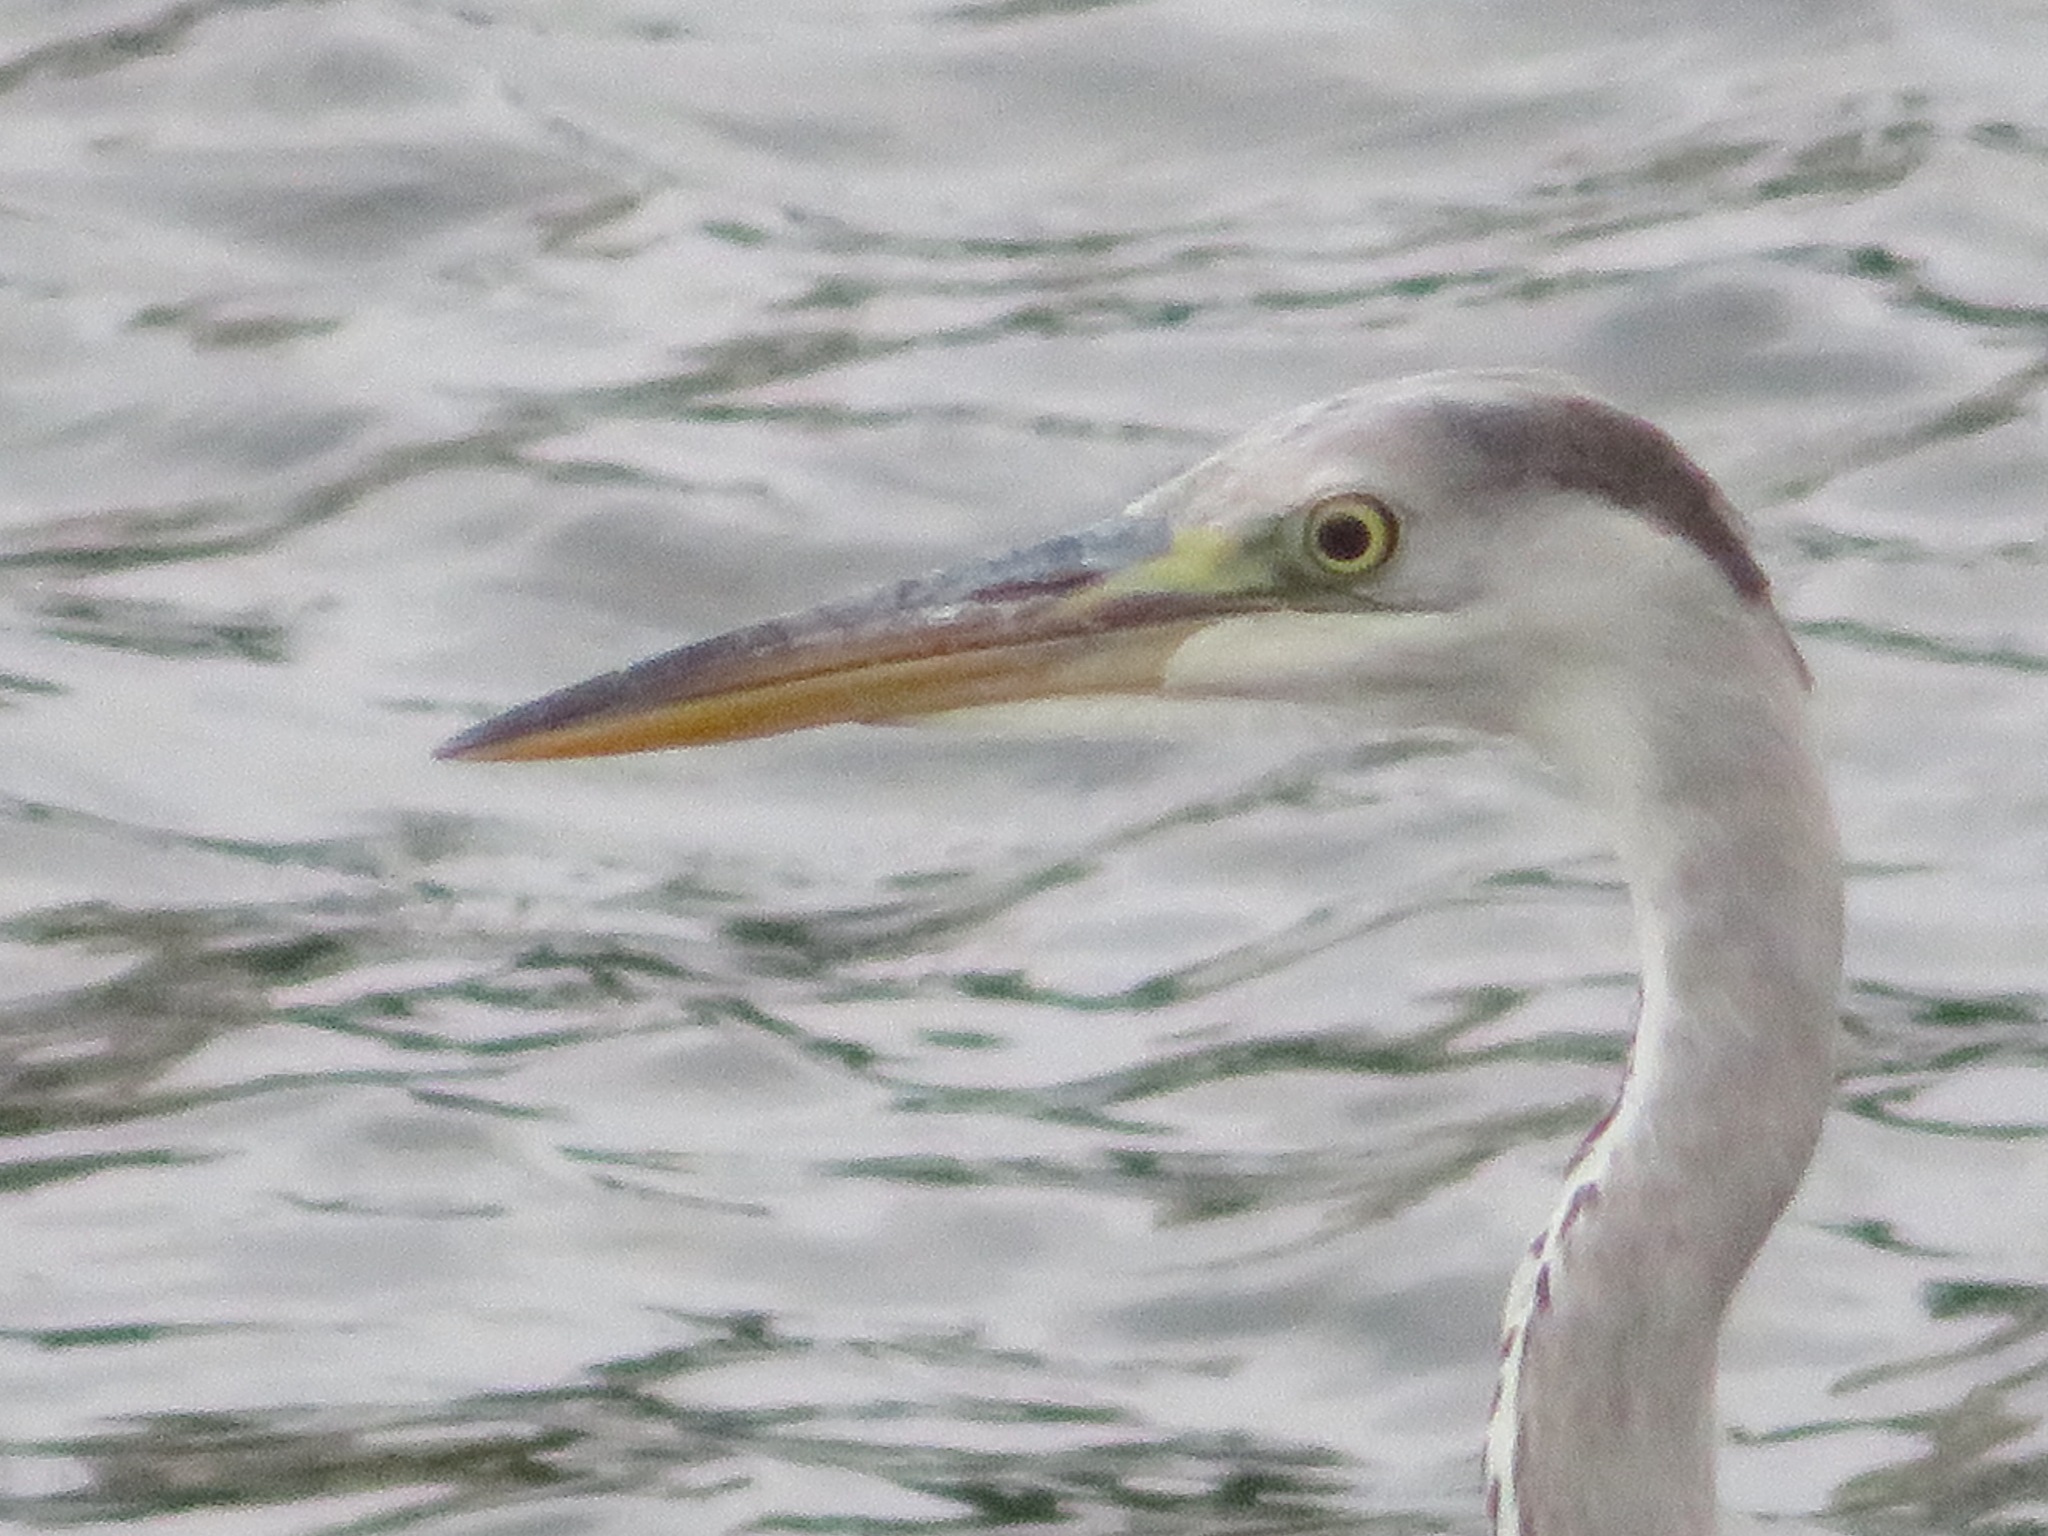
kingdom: Animalia
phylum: Chordata
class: Aves
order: Pelecaniformes
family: Ardeidae
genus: Ardea
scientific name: Ardea cinerea
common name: Grey heron
